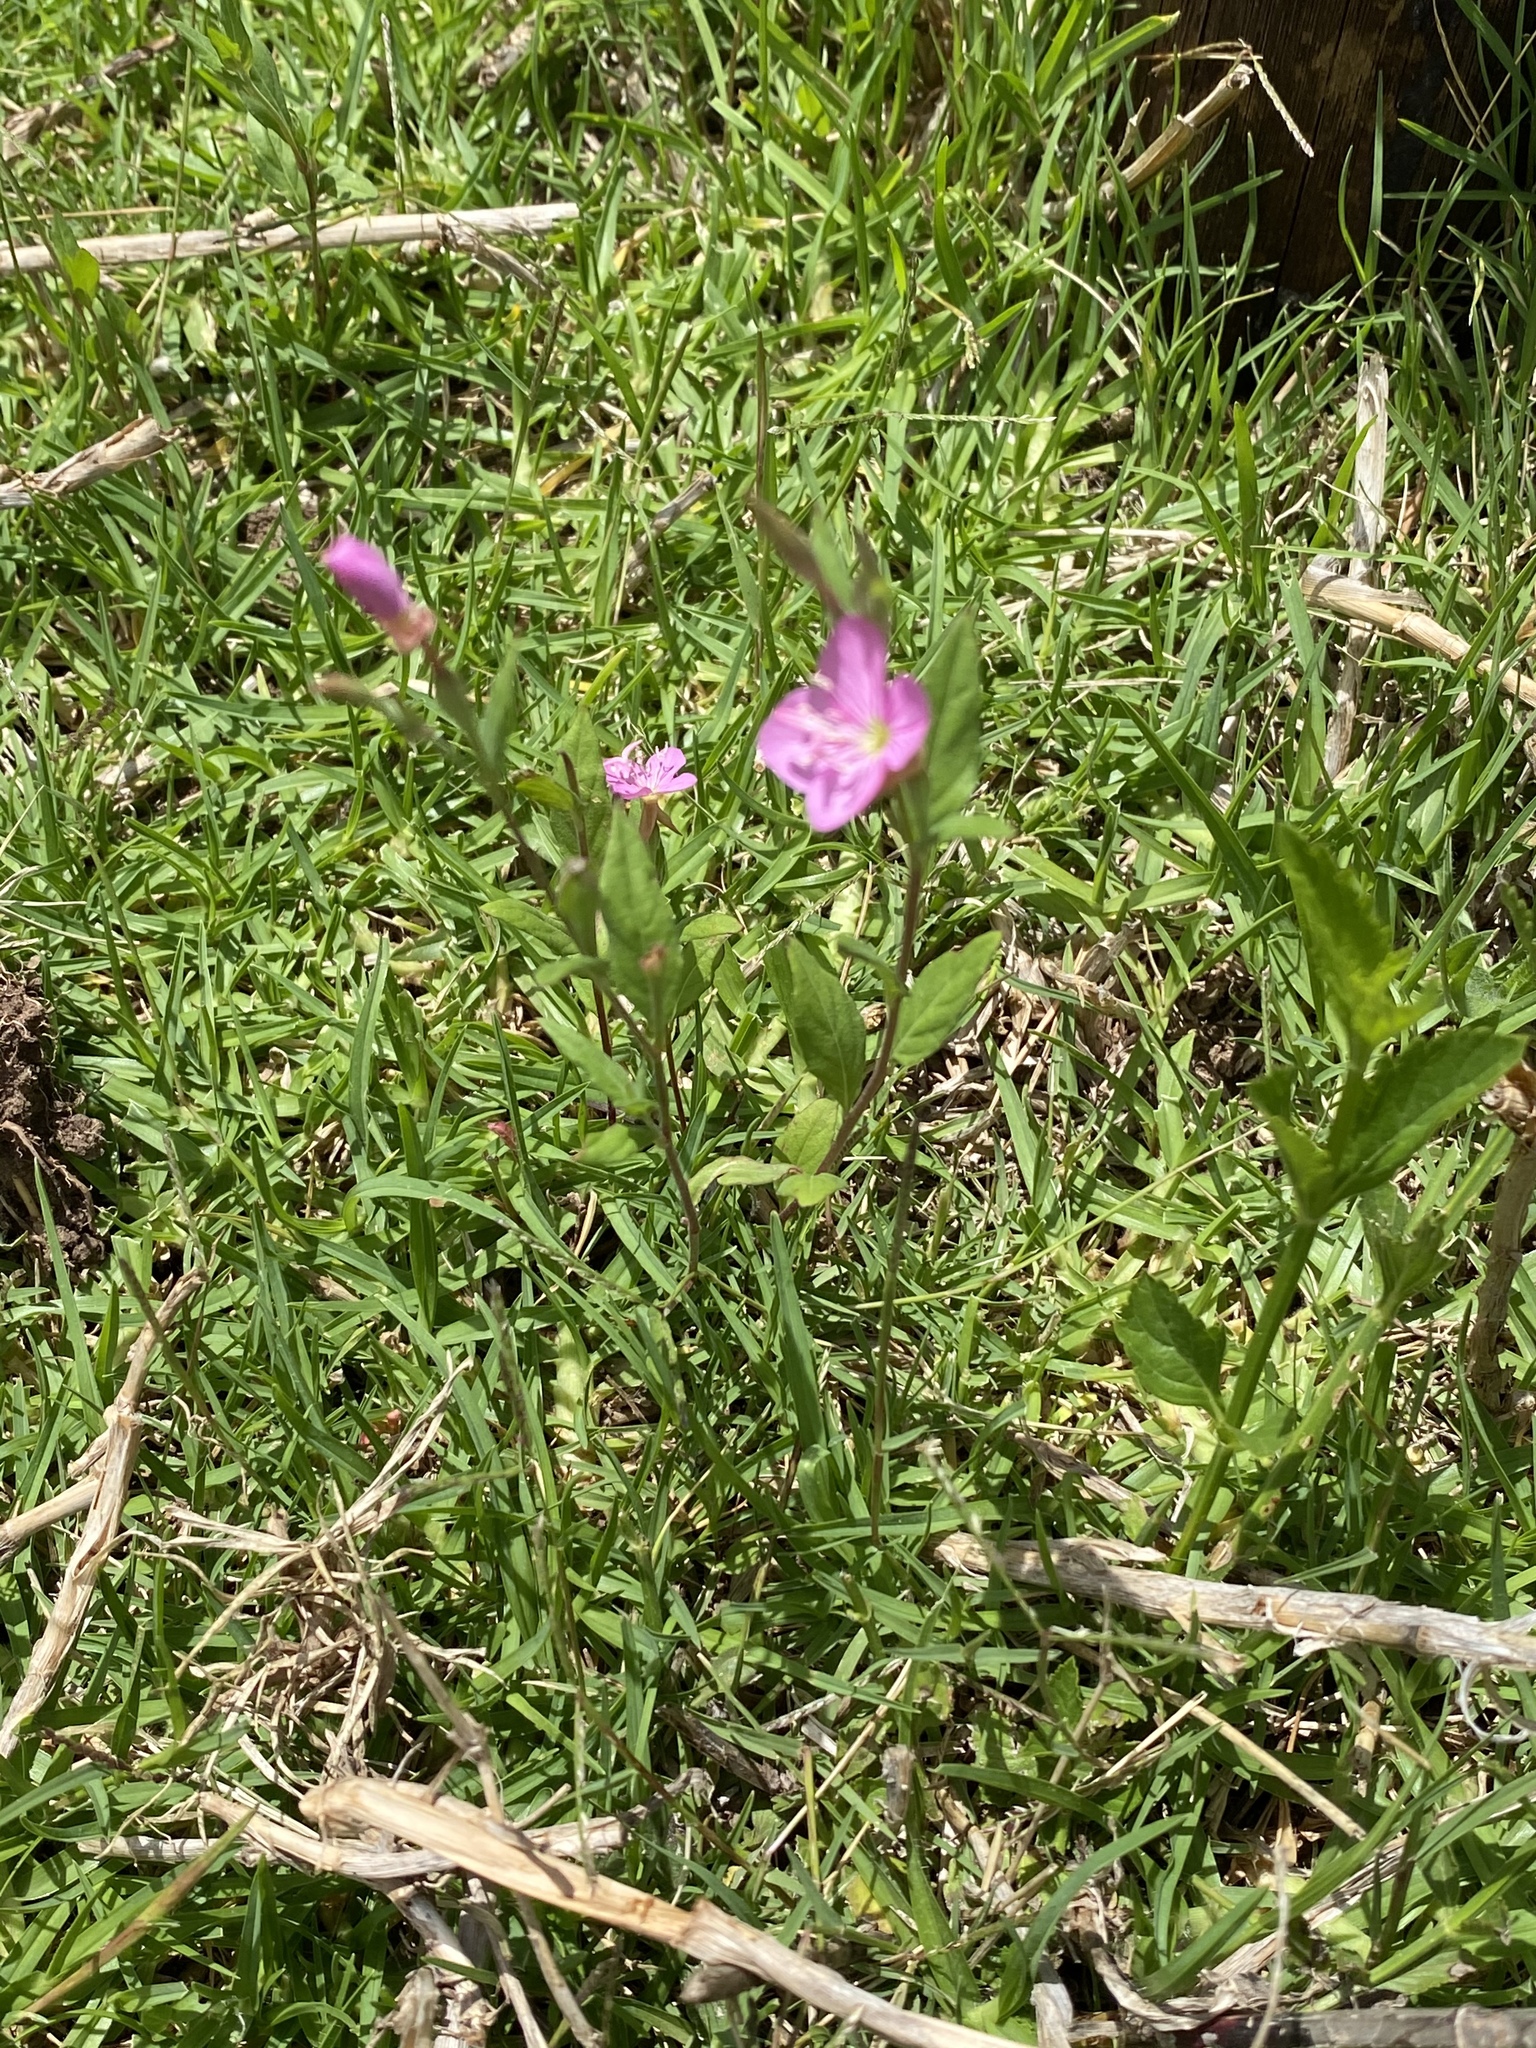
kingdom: Plantae
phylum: Tracheophyta
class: Magnoliopsida
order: Myrtales
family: Onagraceae
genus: Oenothera
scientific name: Oenothera rosea
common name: Rosy evening-primrose
